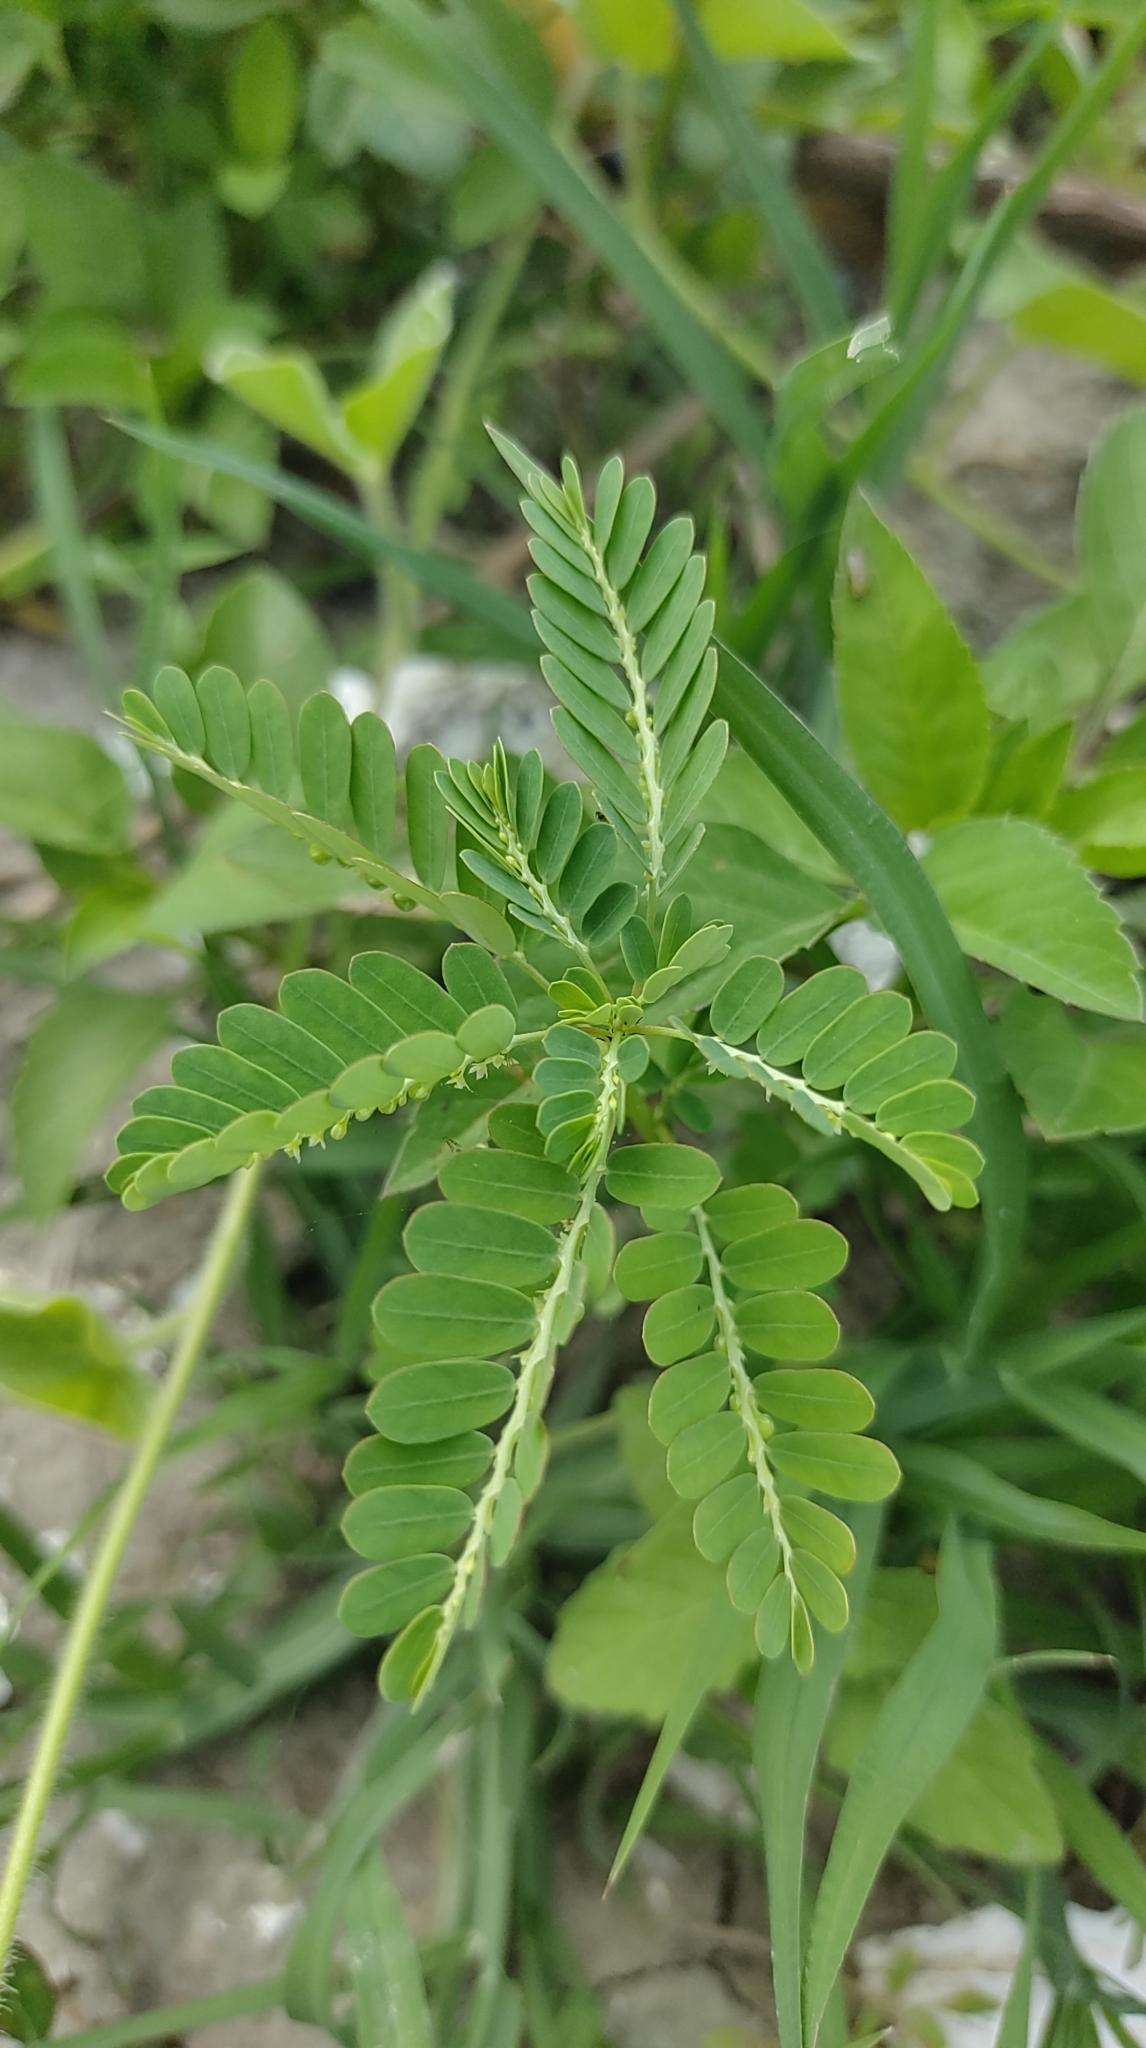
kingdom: Plantae
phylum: Tracheophyta
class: Magnoliopsida
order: Malpighiales
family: Phyllanthaceae
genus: Phyllanthus
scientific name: Phyllanthus amarus
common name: Carry me seed
